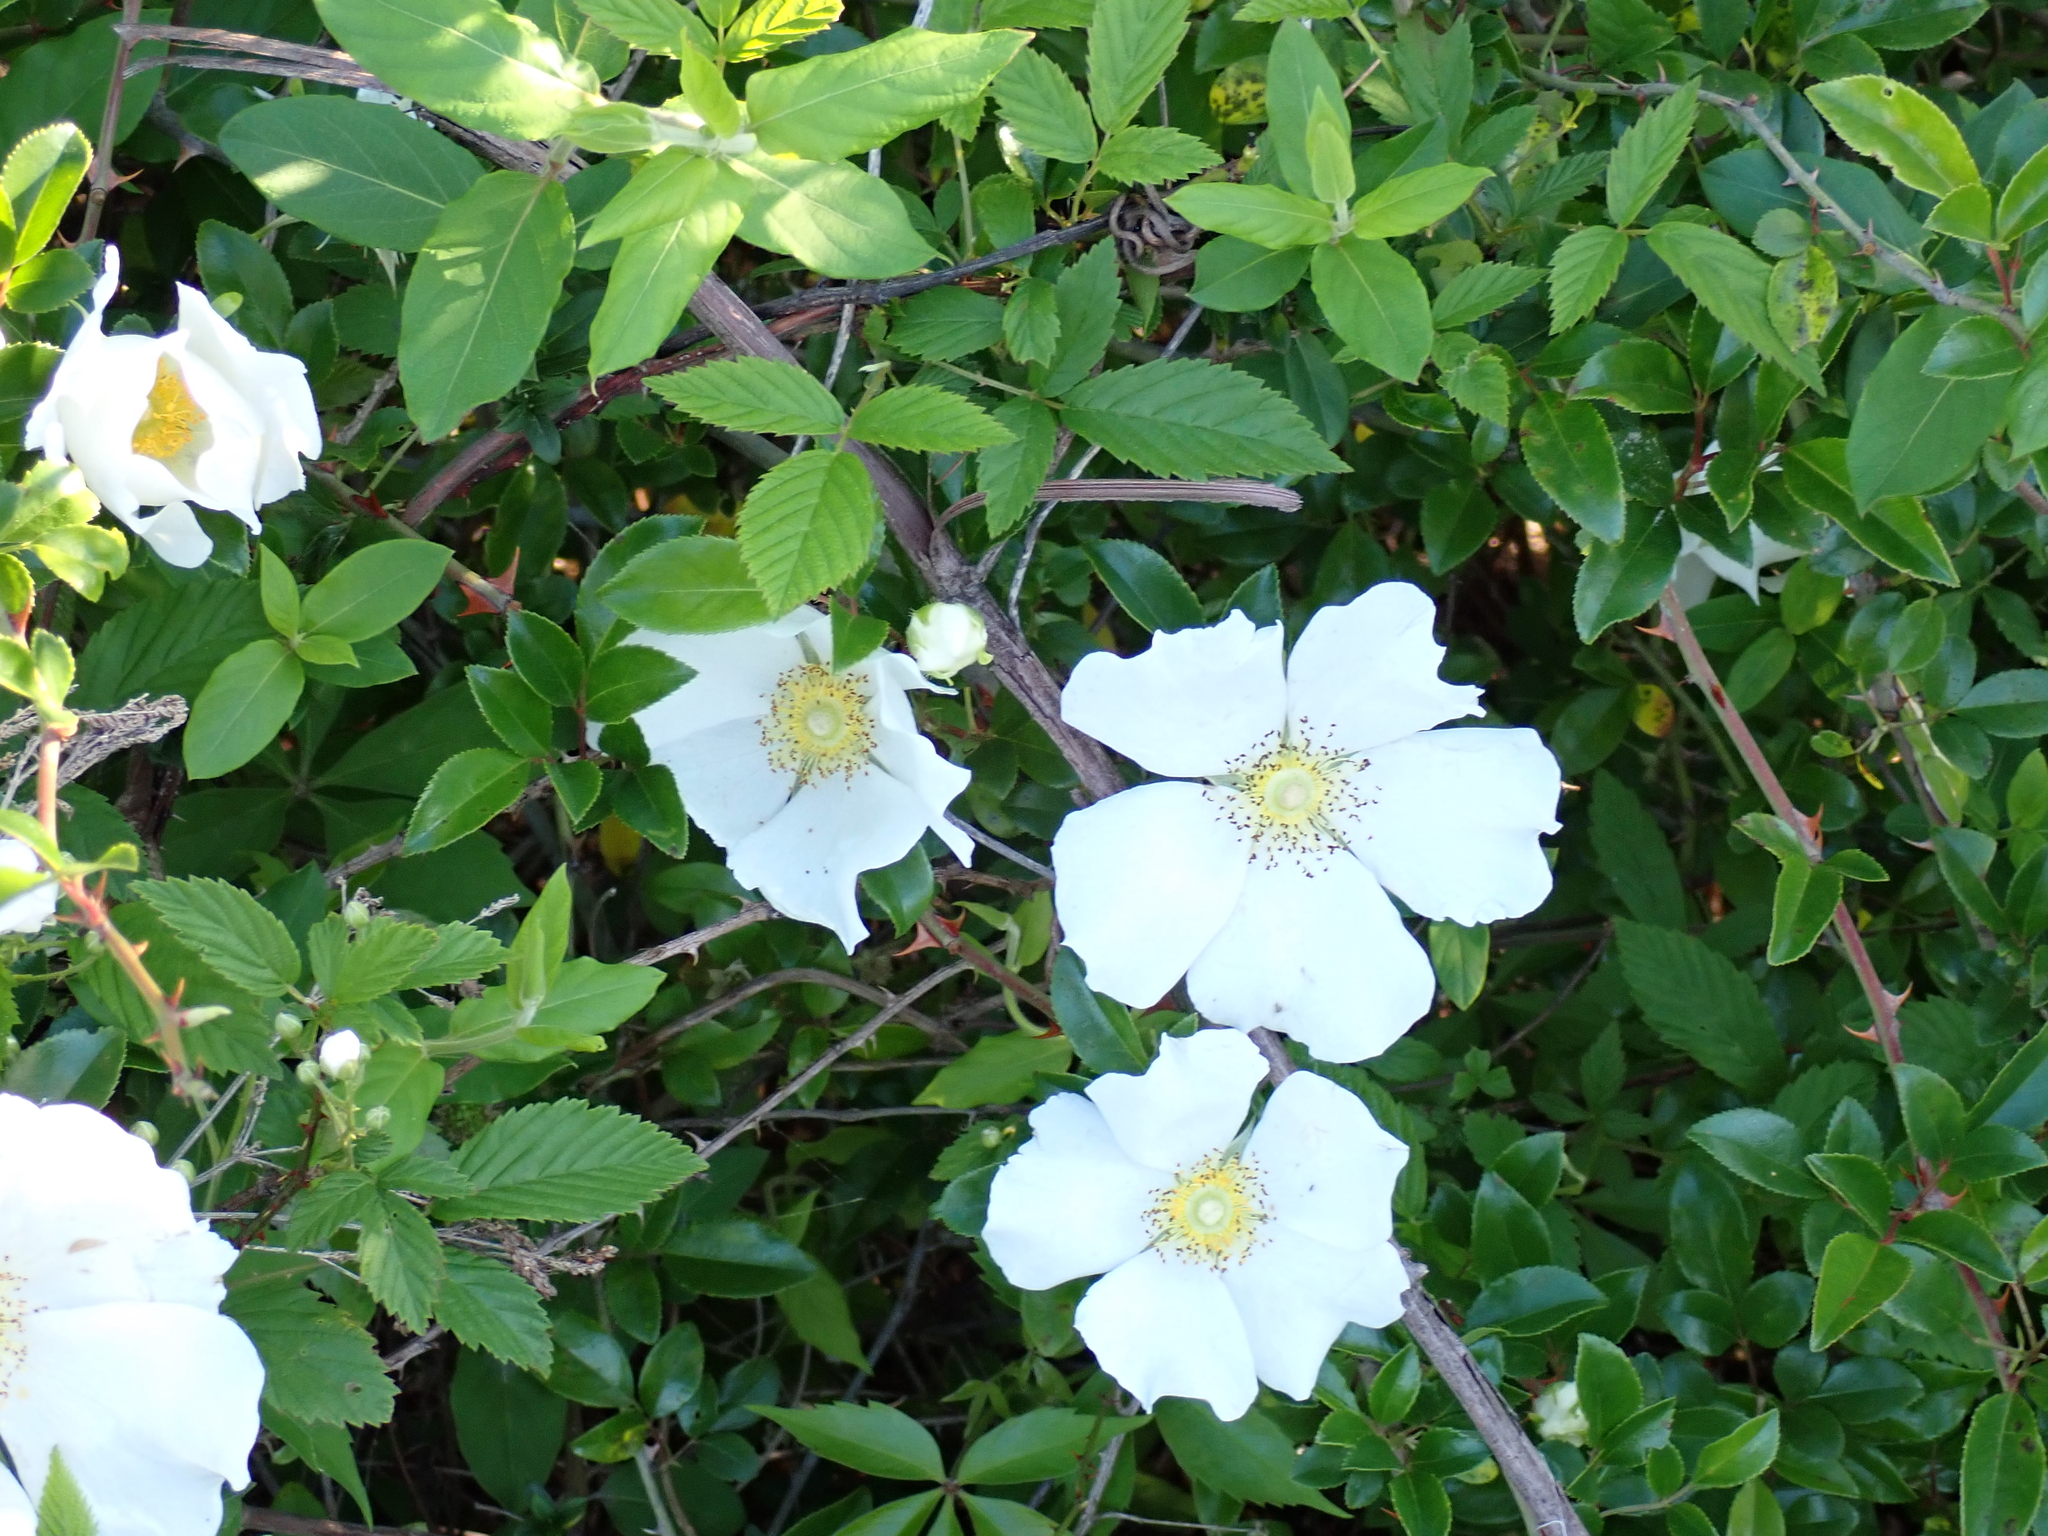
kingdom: Plantae
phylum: Tracheophyta
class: Magnoliopsida
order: Rosales
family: Rosaceae
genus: Rosa
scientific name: Rosa laevigata
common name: Cherokee rose
